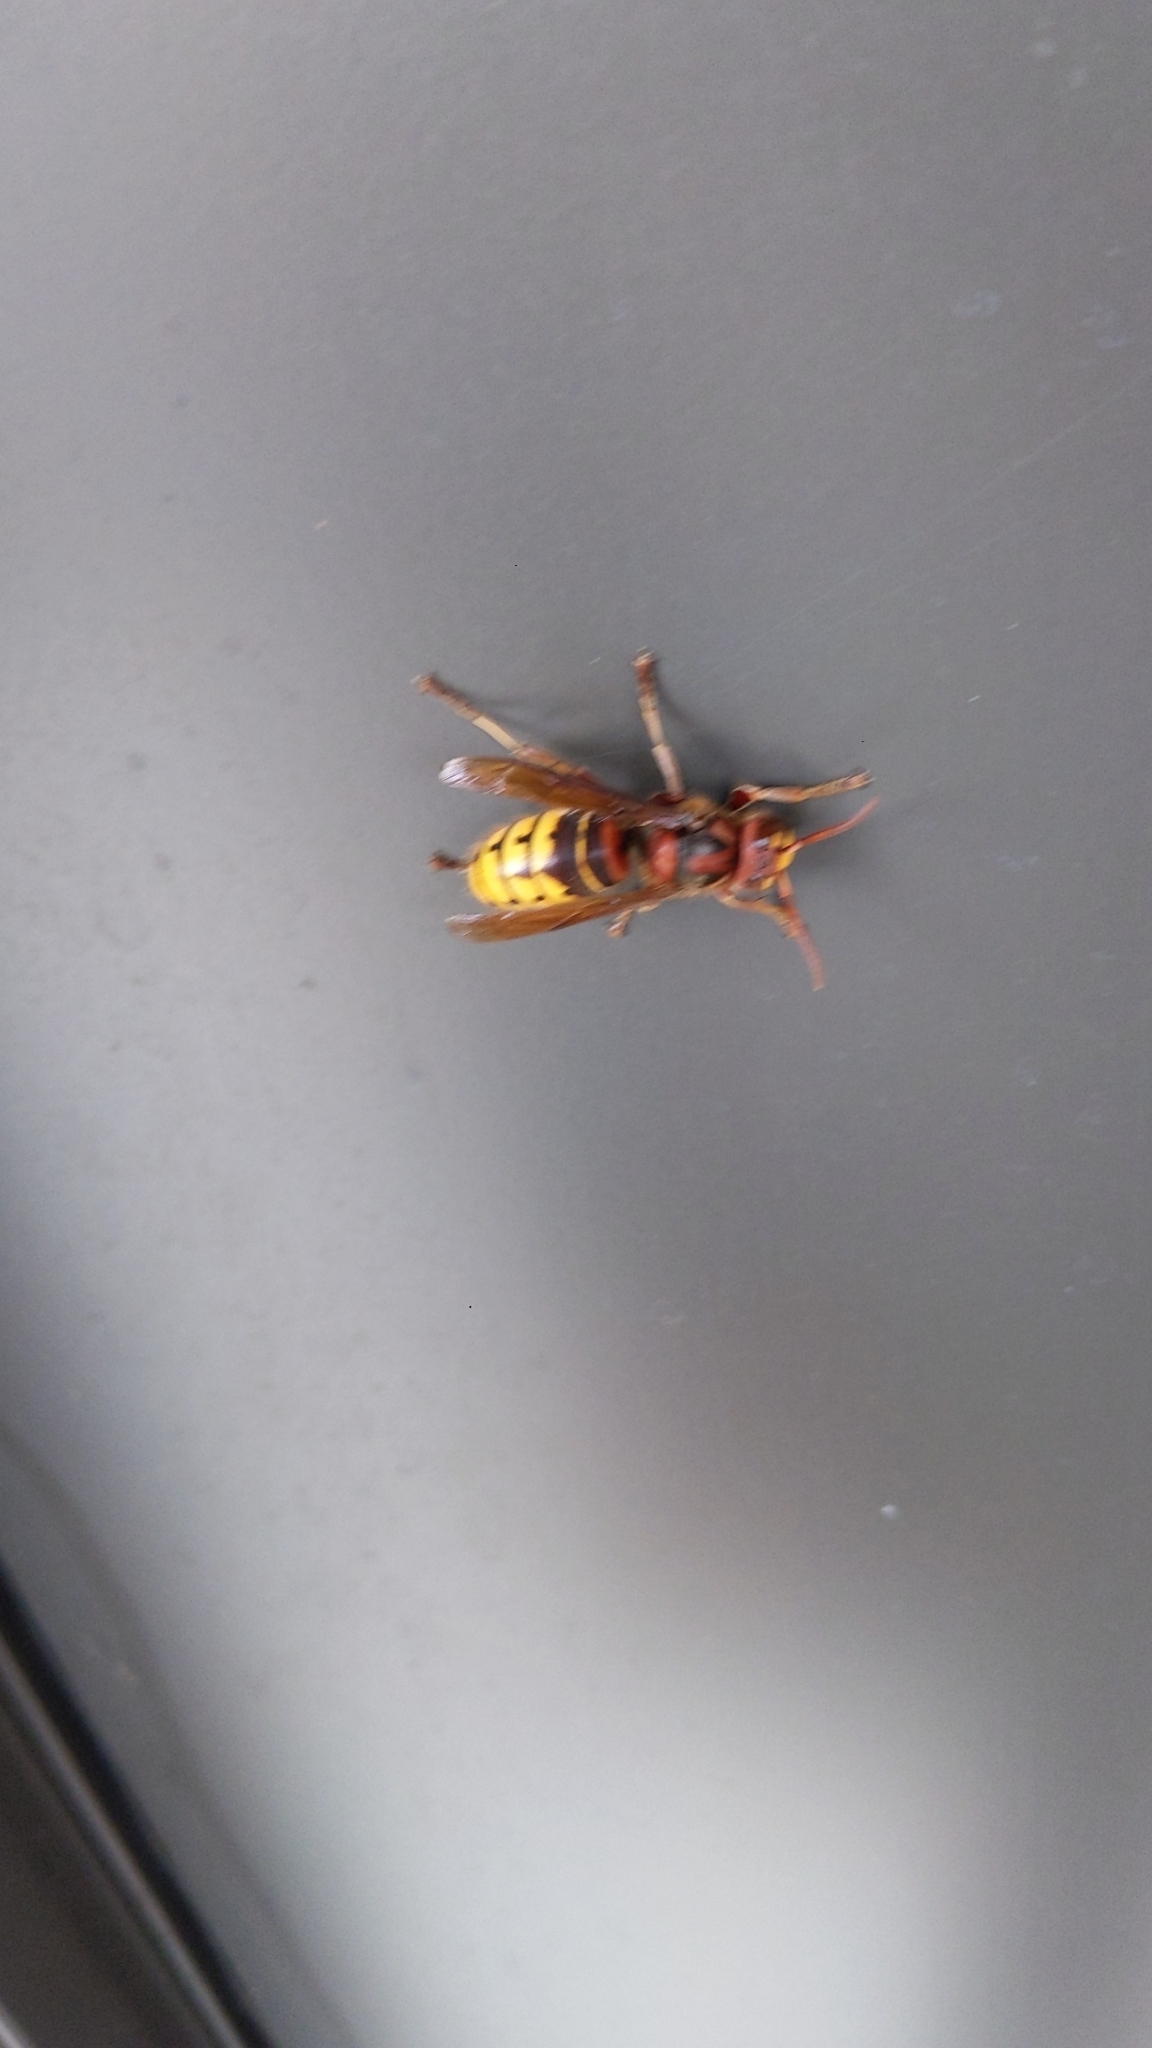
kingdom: Animalia
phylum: Arthropoda
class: Insecta
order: Hymenoptera
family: Vespidae
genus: Vespa
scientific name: Vespa crabro
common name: Hornet
